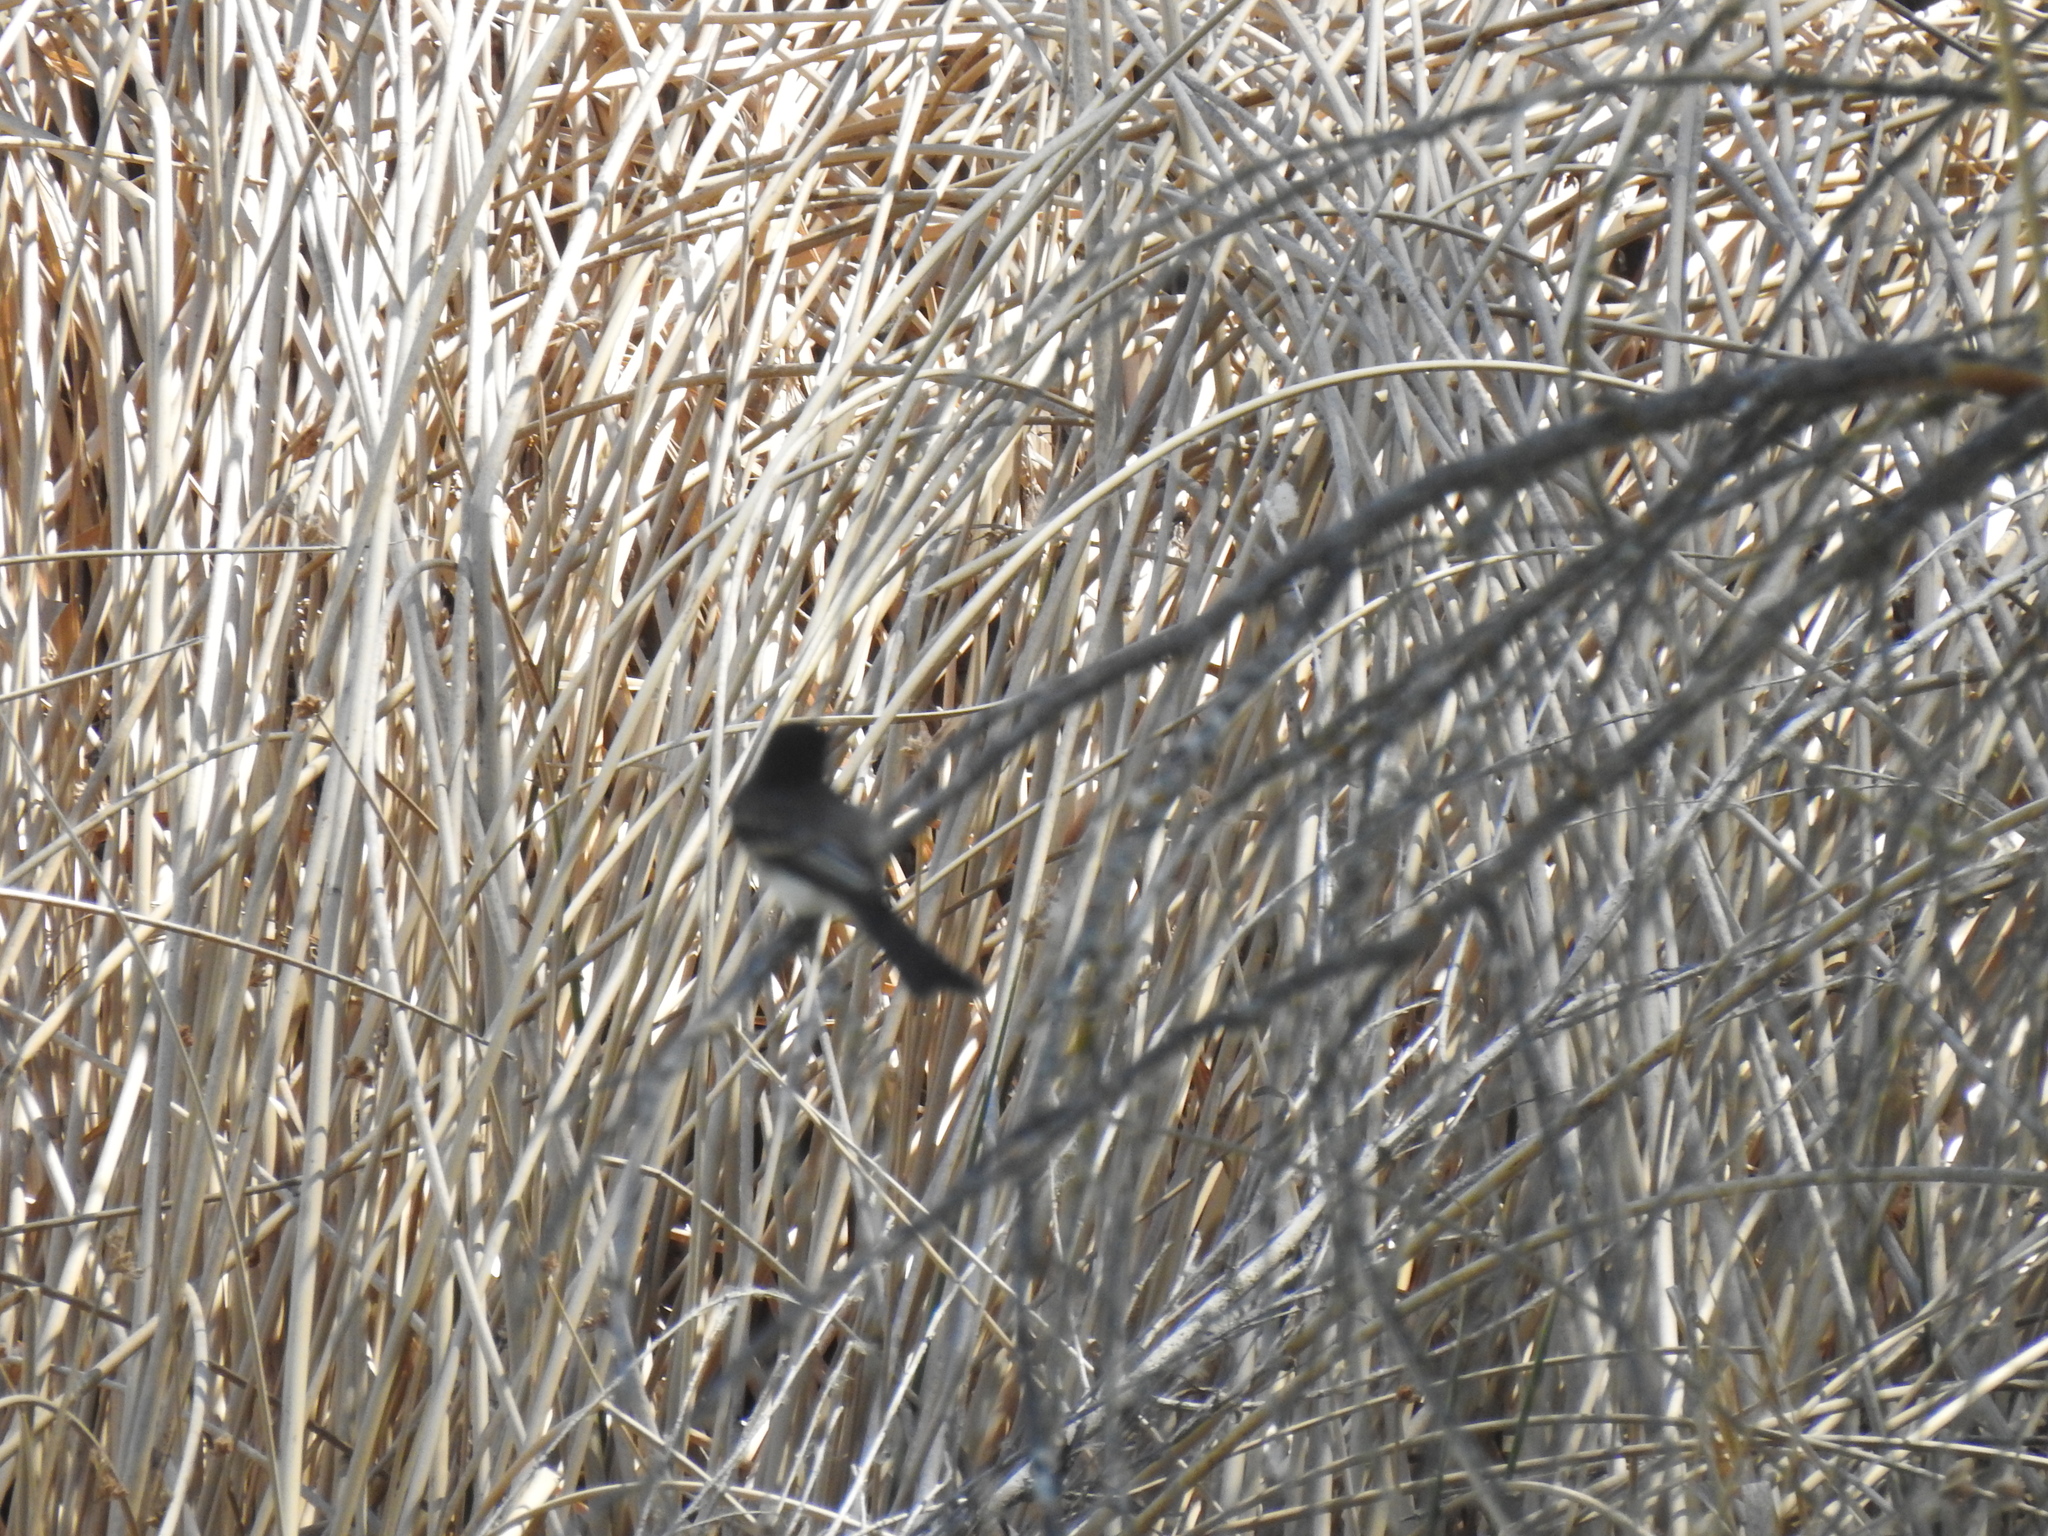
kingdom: Animalia
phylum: Chordata
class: Aves
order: Passeriformes
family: Tyrannidae
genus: Sayornis
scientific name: Sayornis nigricans
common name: Black phoebe
